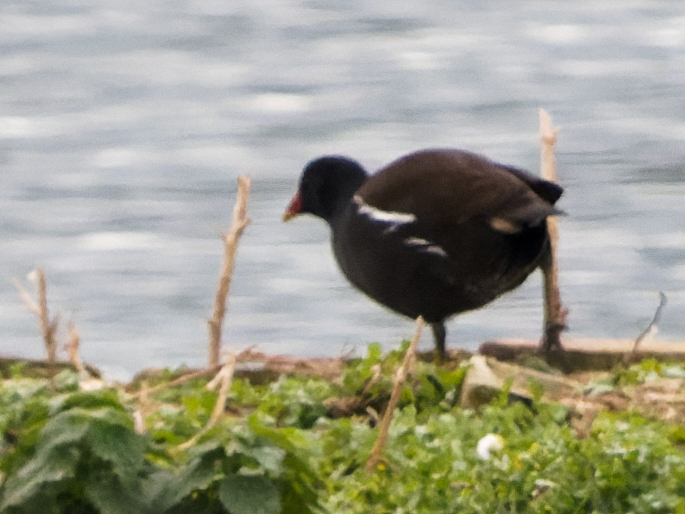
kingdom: Animalia
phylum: Chordata
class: Aves
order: Gruiformes
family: Rallidae
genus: Gallinula
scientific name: Gallinula chloropus
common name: Common moorhen
